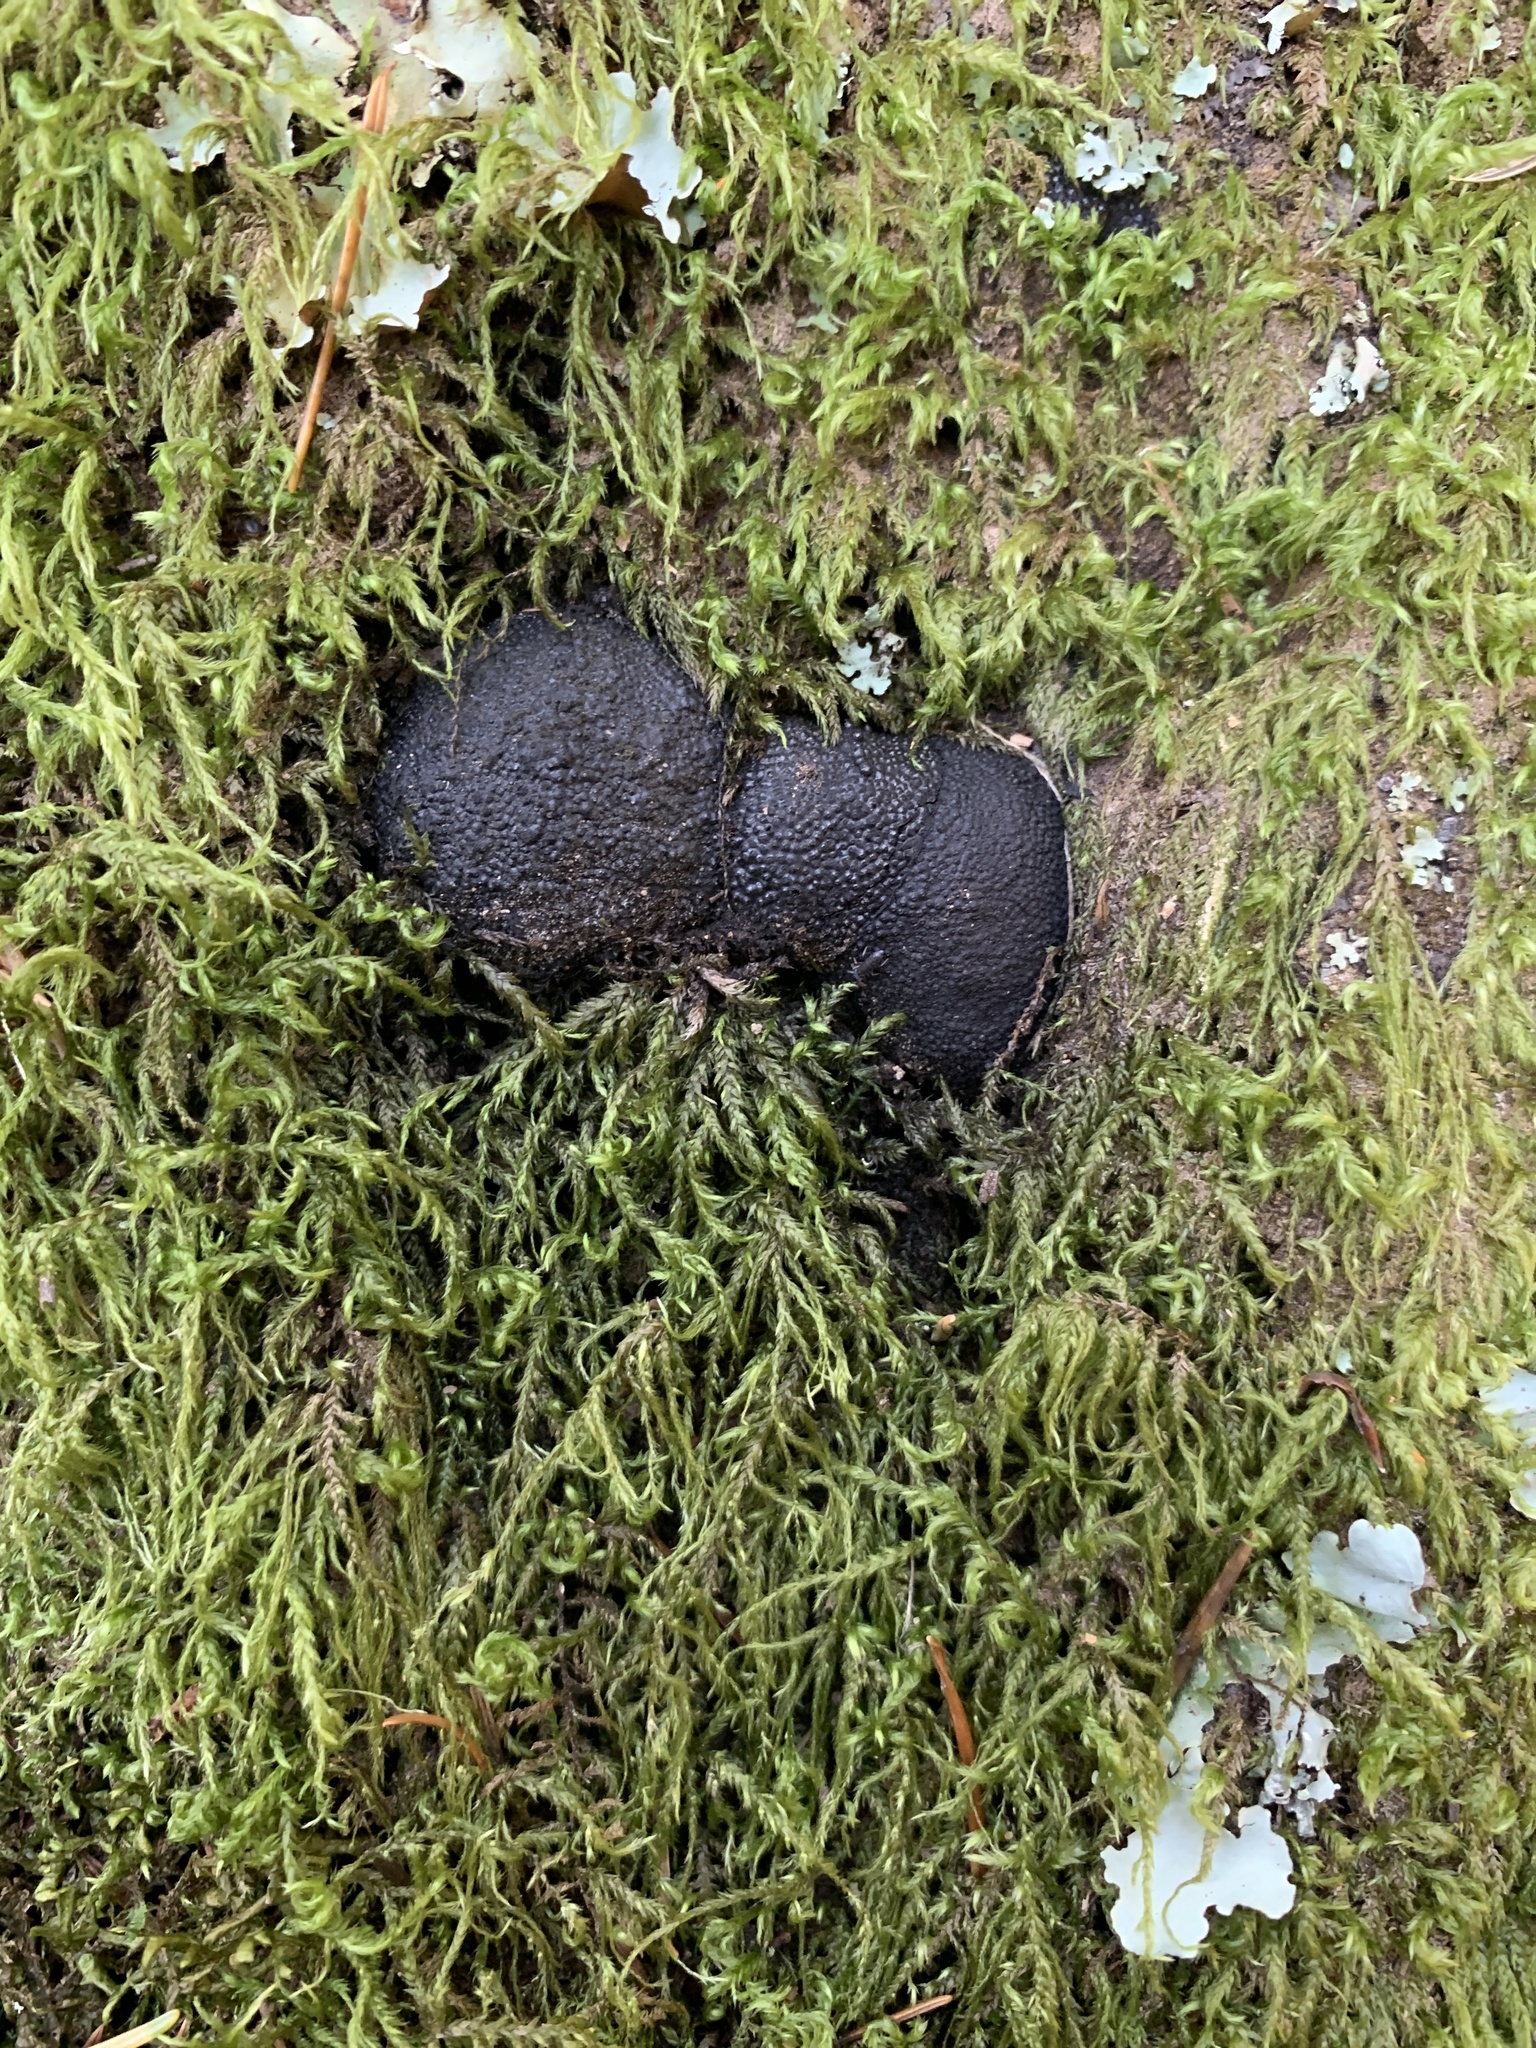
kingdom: Fungi
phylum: Ascomycota
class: Sordariomycetes
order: Xylariales
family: Hypoxylaceae
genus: Annulohypoxylon
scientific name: Annulohypoxylon thouarsianum
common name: Cramp balls
